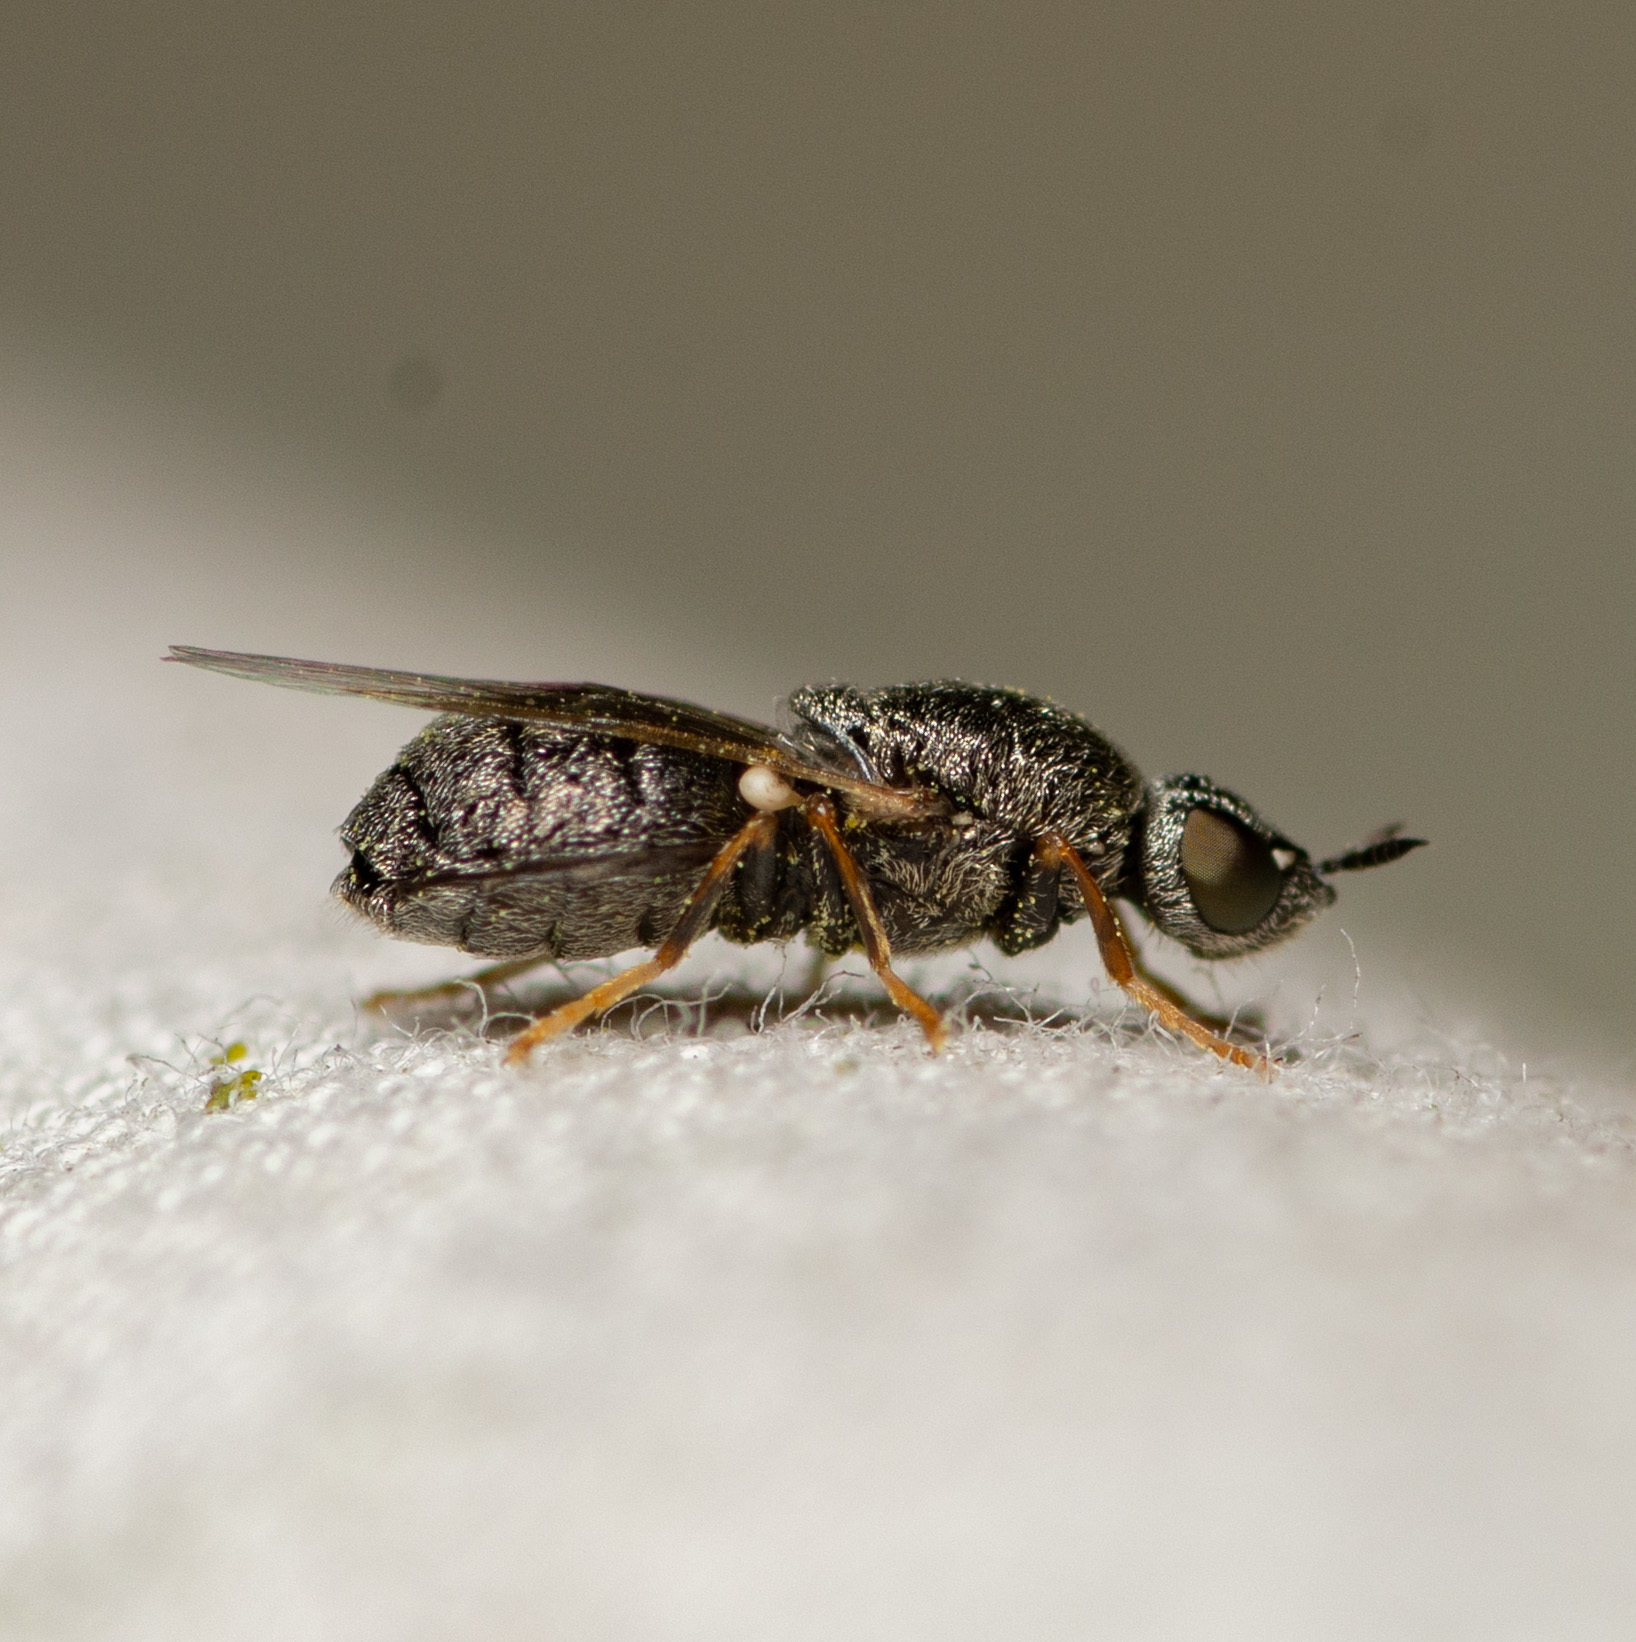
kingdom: Animalia
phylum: Arthropoda
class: Insecta
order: Diptera
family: Stratiomyidae
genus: Nemotelus
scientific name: Nemotelus bruesii
